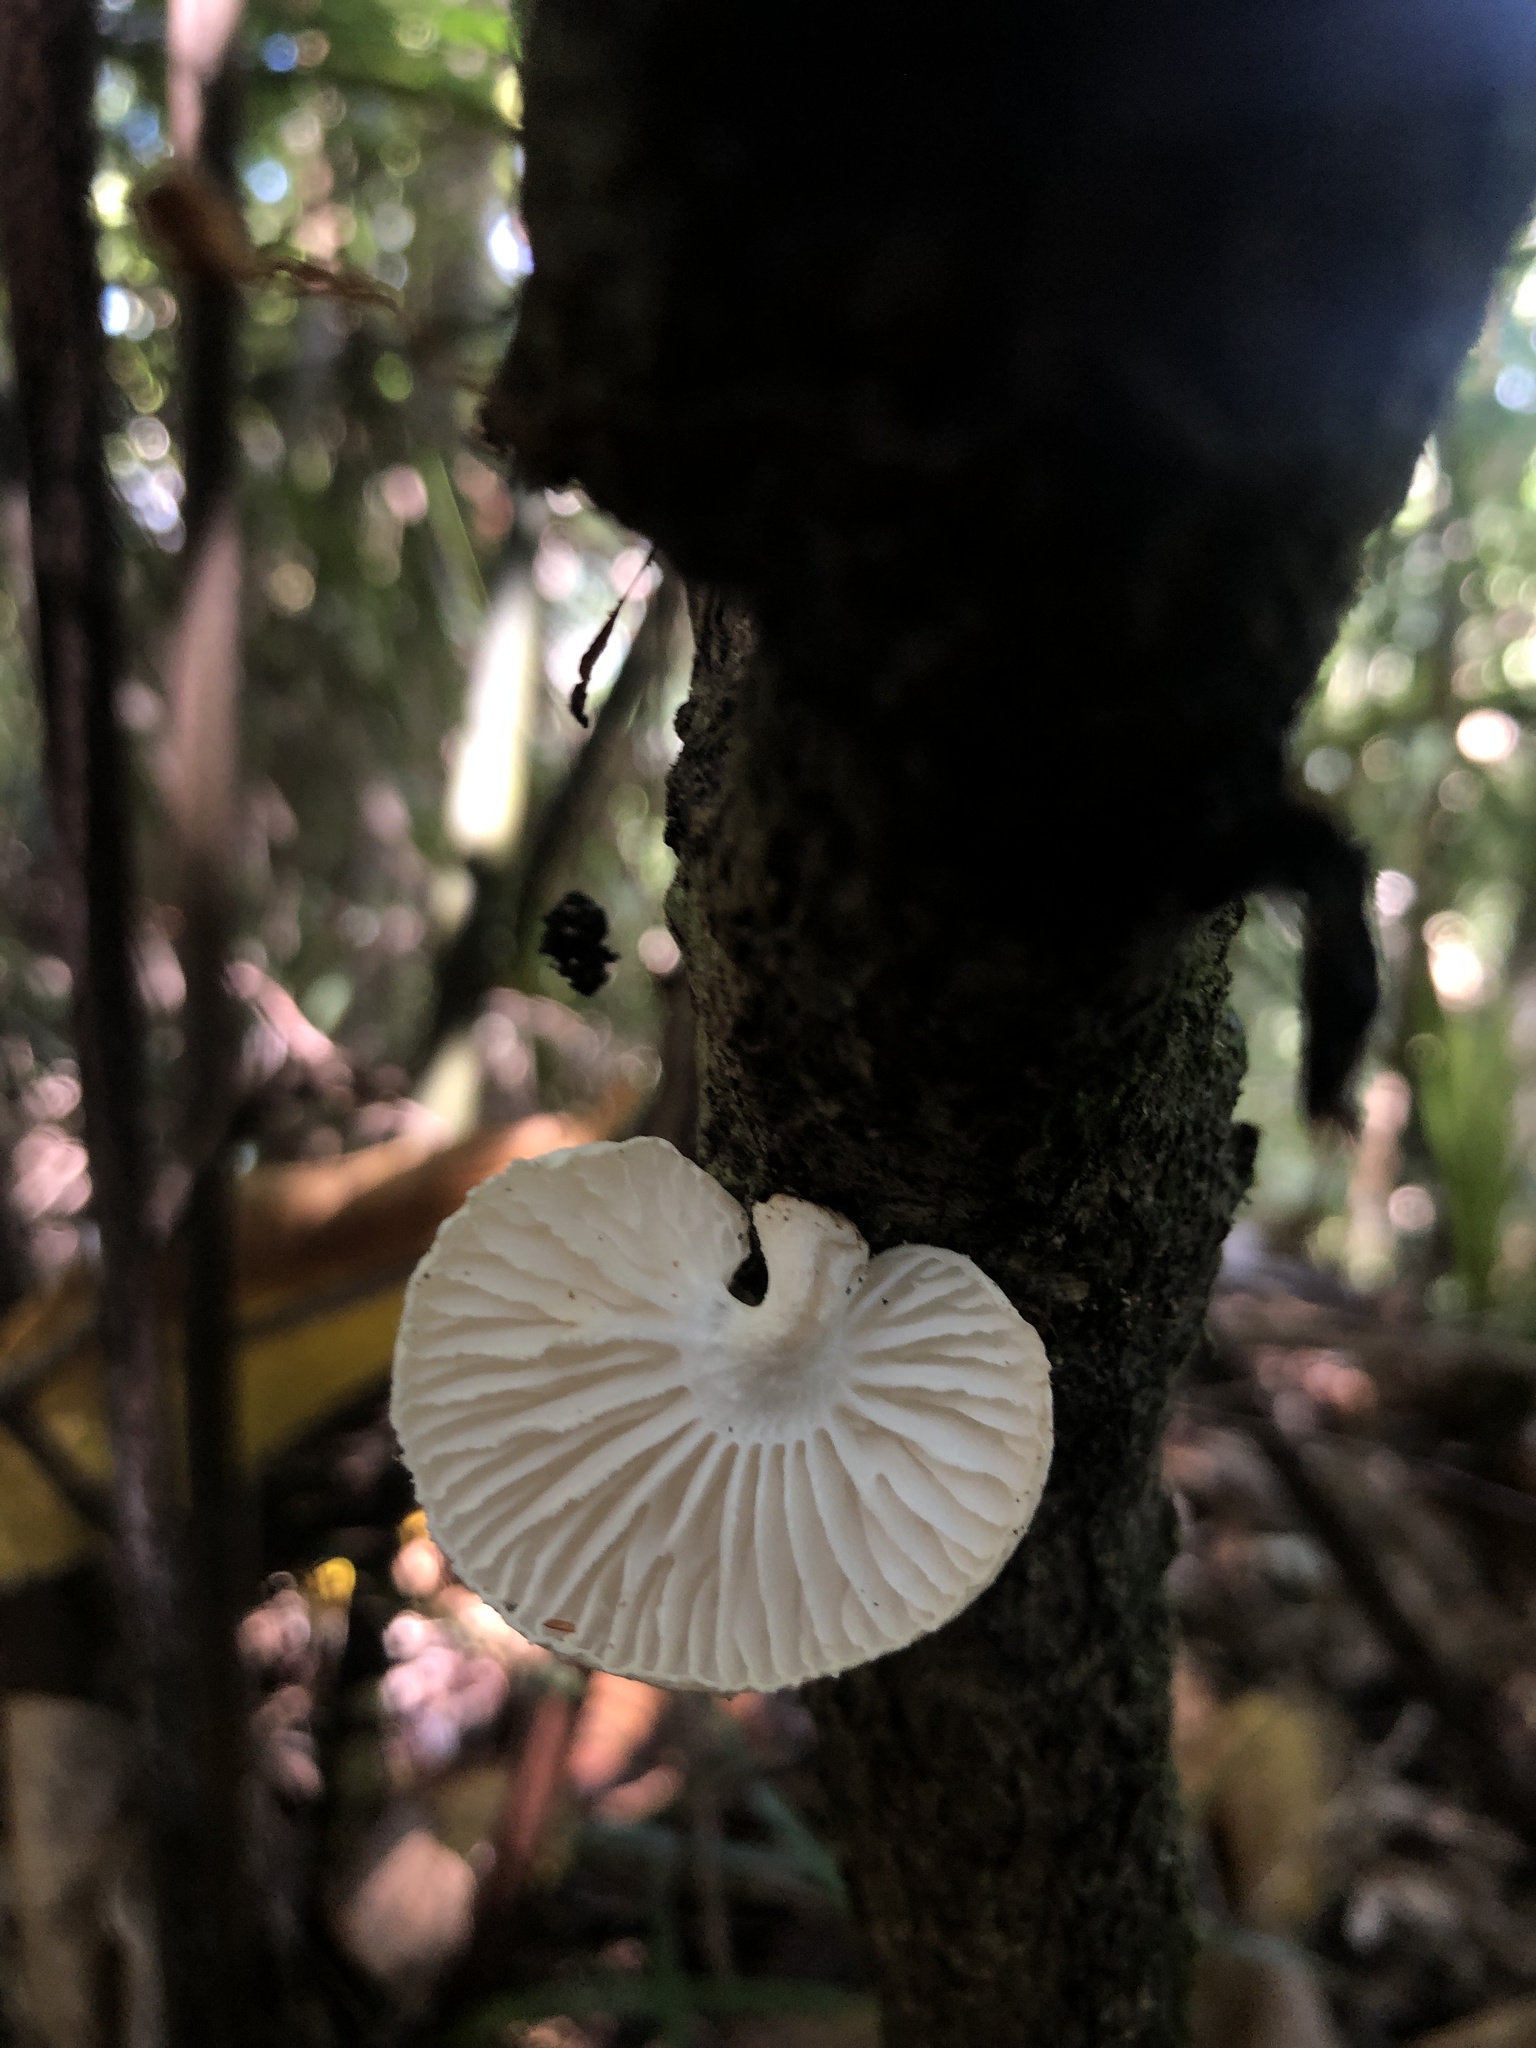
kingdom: Fungi
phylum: Basidiomycota
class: Agaricomycetes
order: Agaricales
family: Physalacriaceae
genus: Oudemansiella
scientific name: Oudemansiella australis
